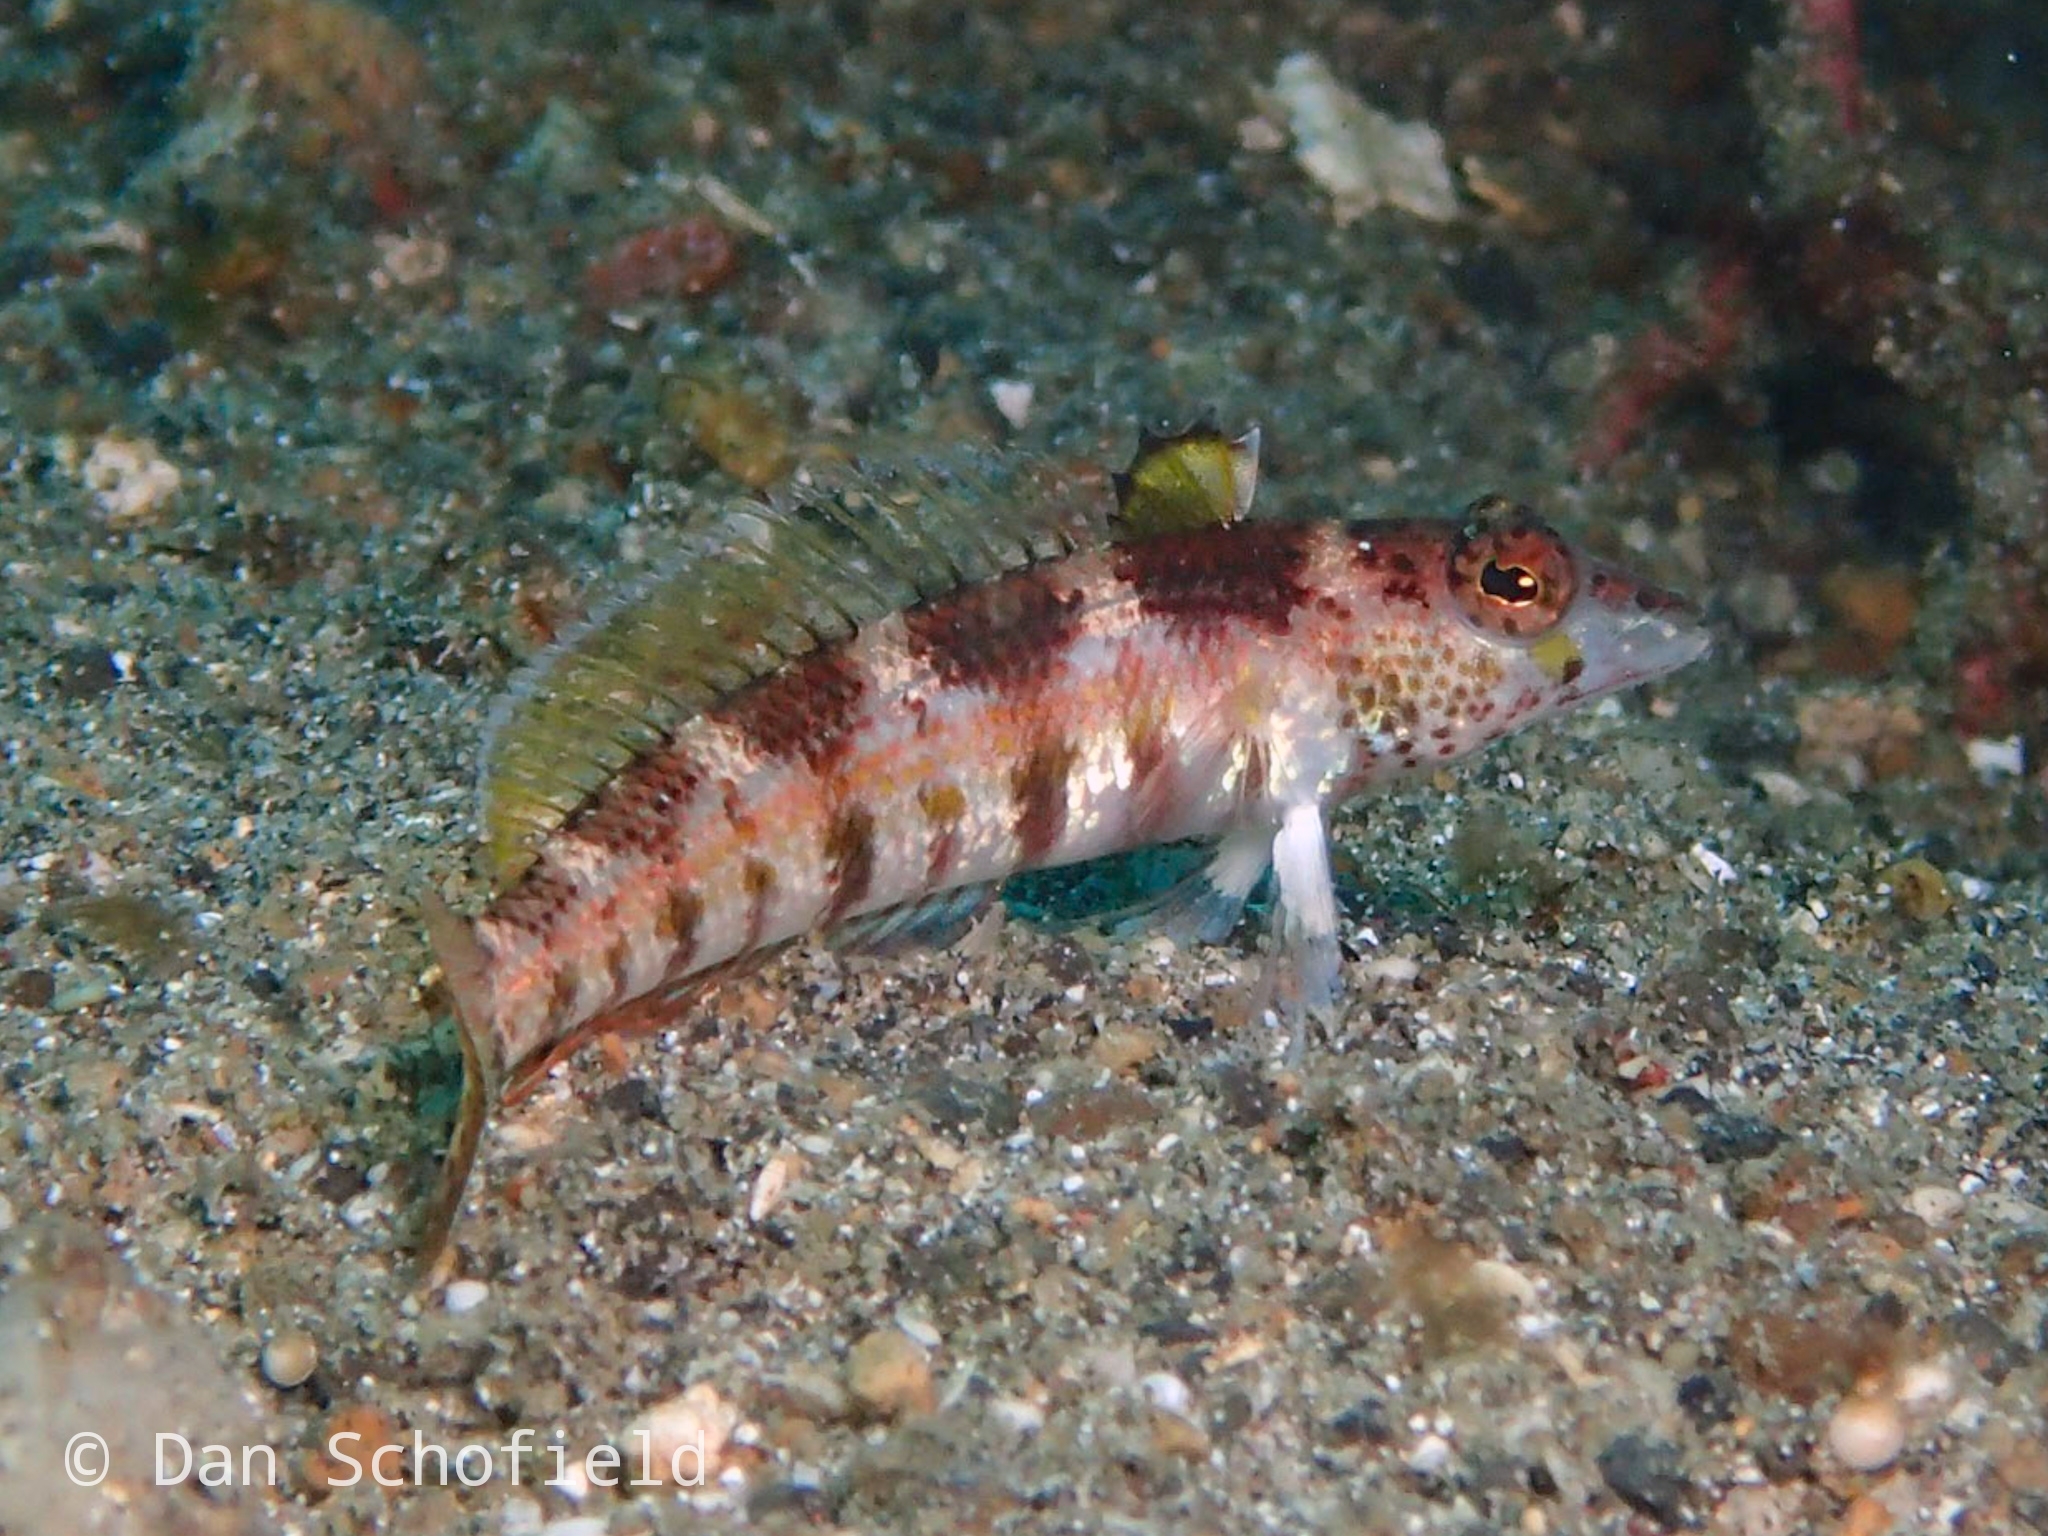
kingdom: Animalia
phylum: Chordata
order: Perciformes
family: Pinguipedidae
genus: Parapercis
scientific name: Parapercis snyderi
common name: U-mark sandperch
